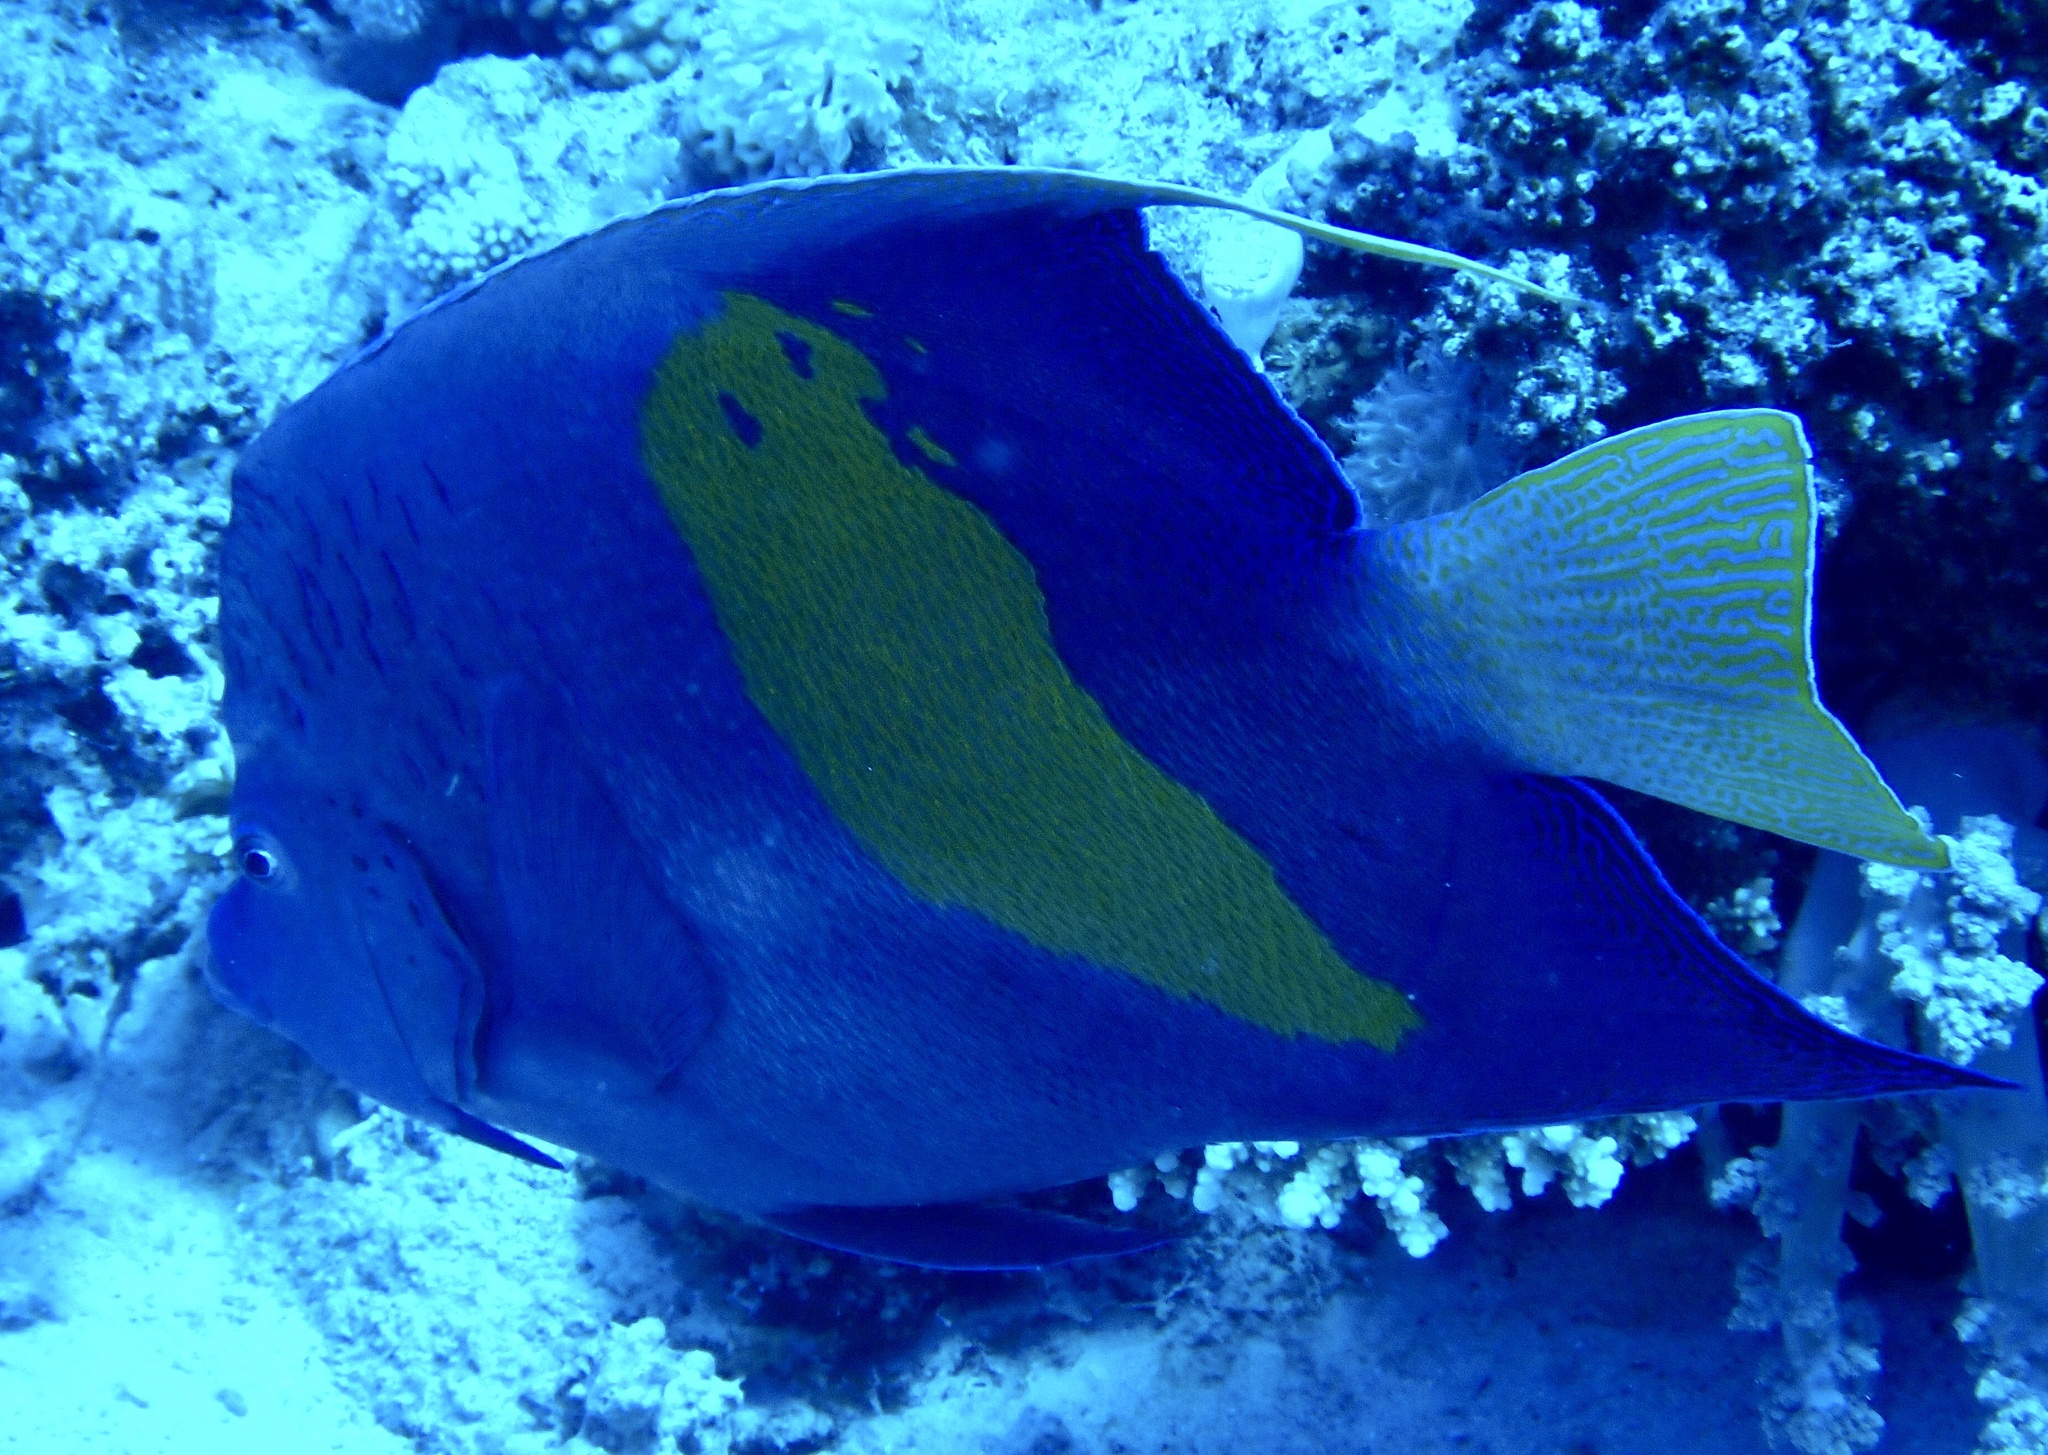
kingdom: Animalia
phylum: Chordata
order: Perciformes
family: Pomacanthidae
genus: Pomacanthus
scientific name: Pomacanthus maculosus
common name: Yellowbar angelfish
